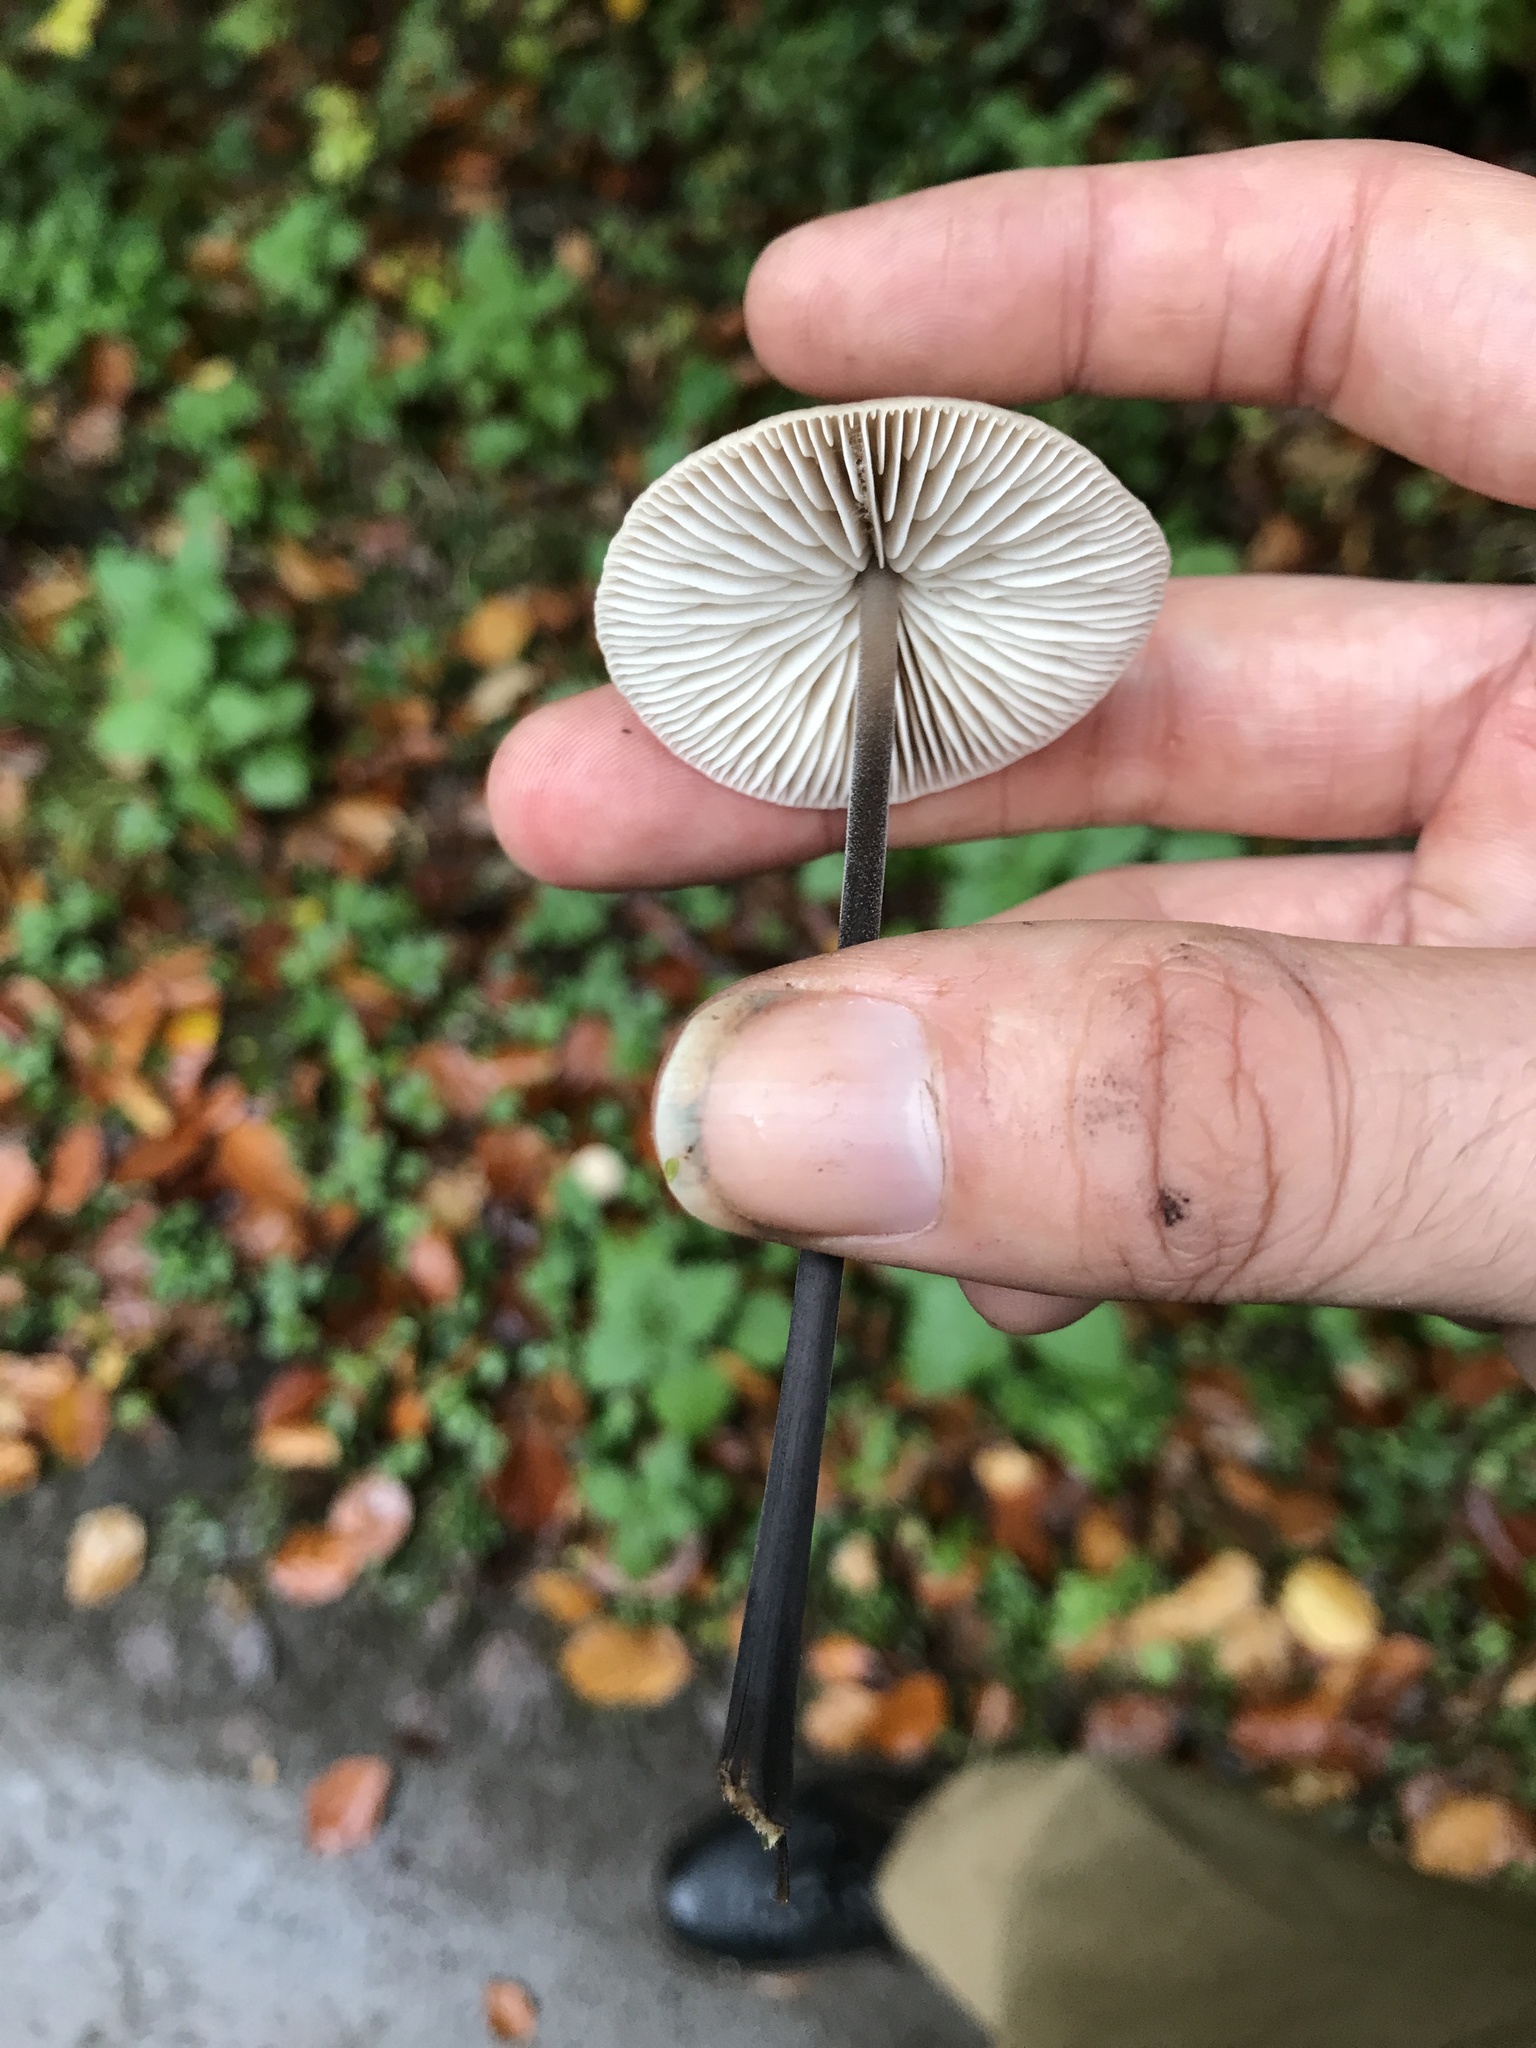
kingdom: Fungi
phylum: Basidiomycota
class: Agaricomycetes
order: Agaricales
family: Omphalotaceae
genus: Mycetinis
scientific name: Mycetinis alliaceus
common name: Garlic parachute
